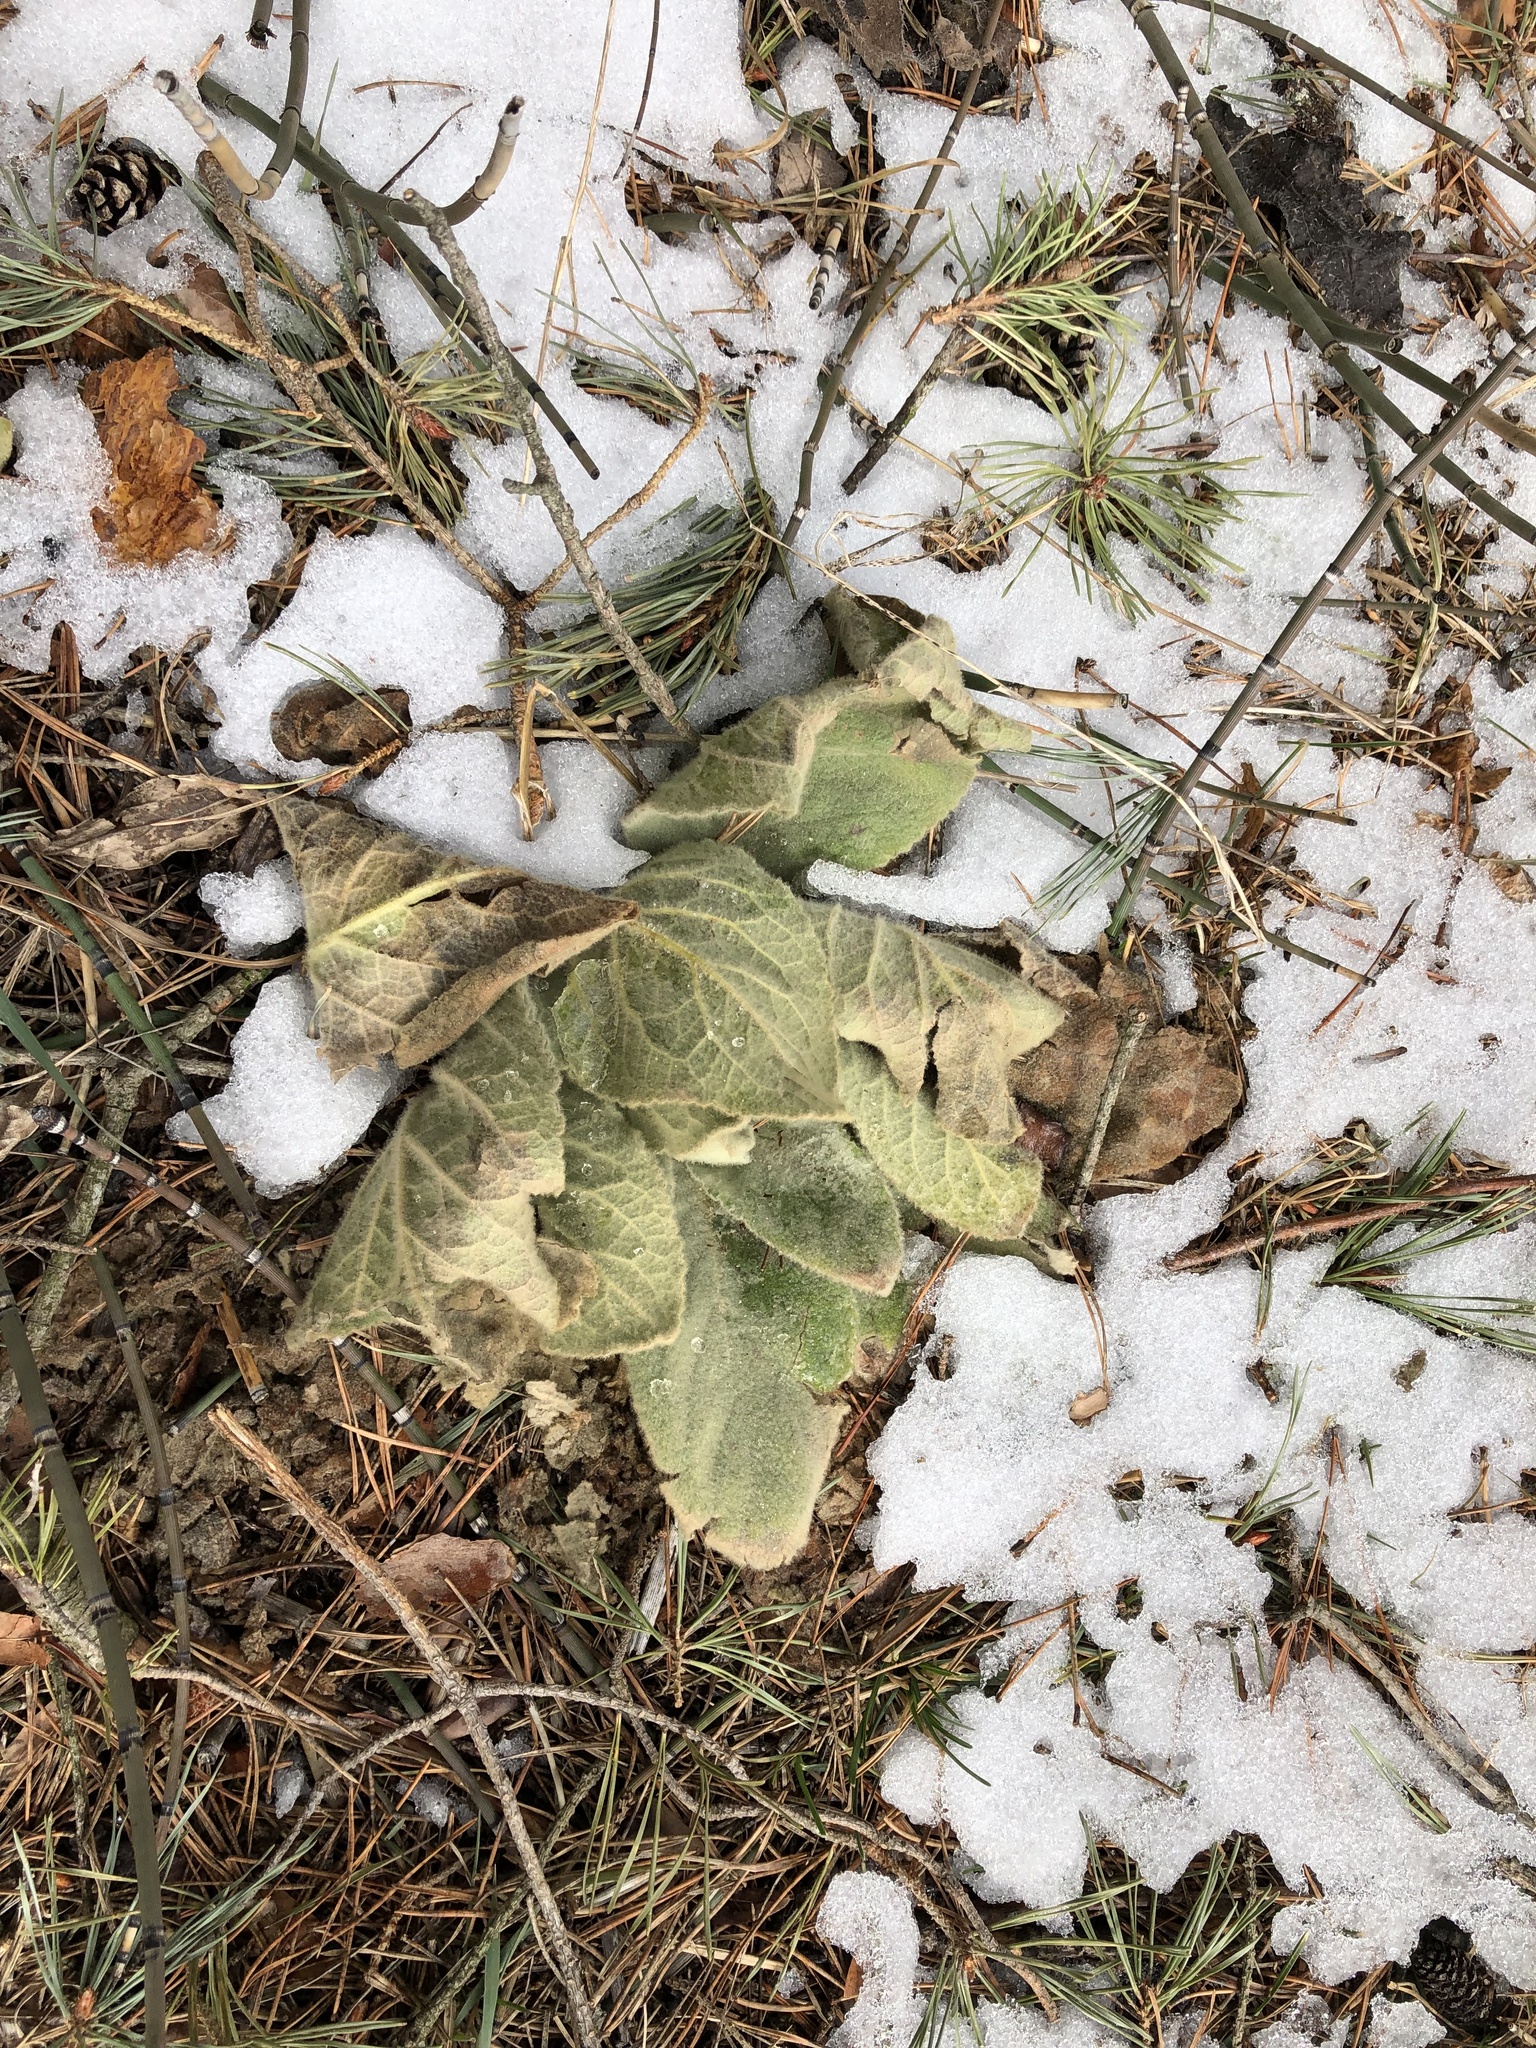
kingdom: Plantae
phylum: Tracheophyta
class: Magnoliopsida
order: Lamiales
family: Scrophulariaceae
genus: Verbascum
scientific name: Verbascum thapsus
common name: Common mullein
